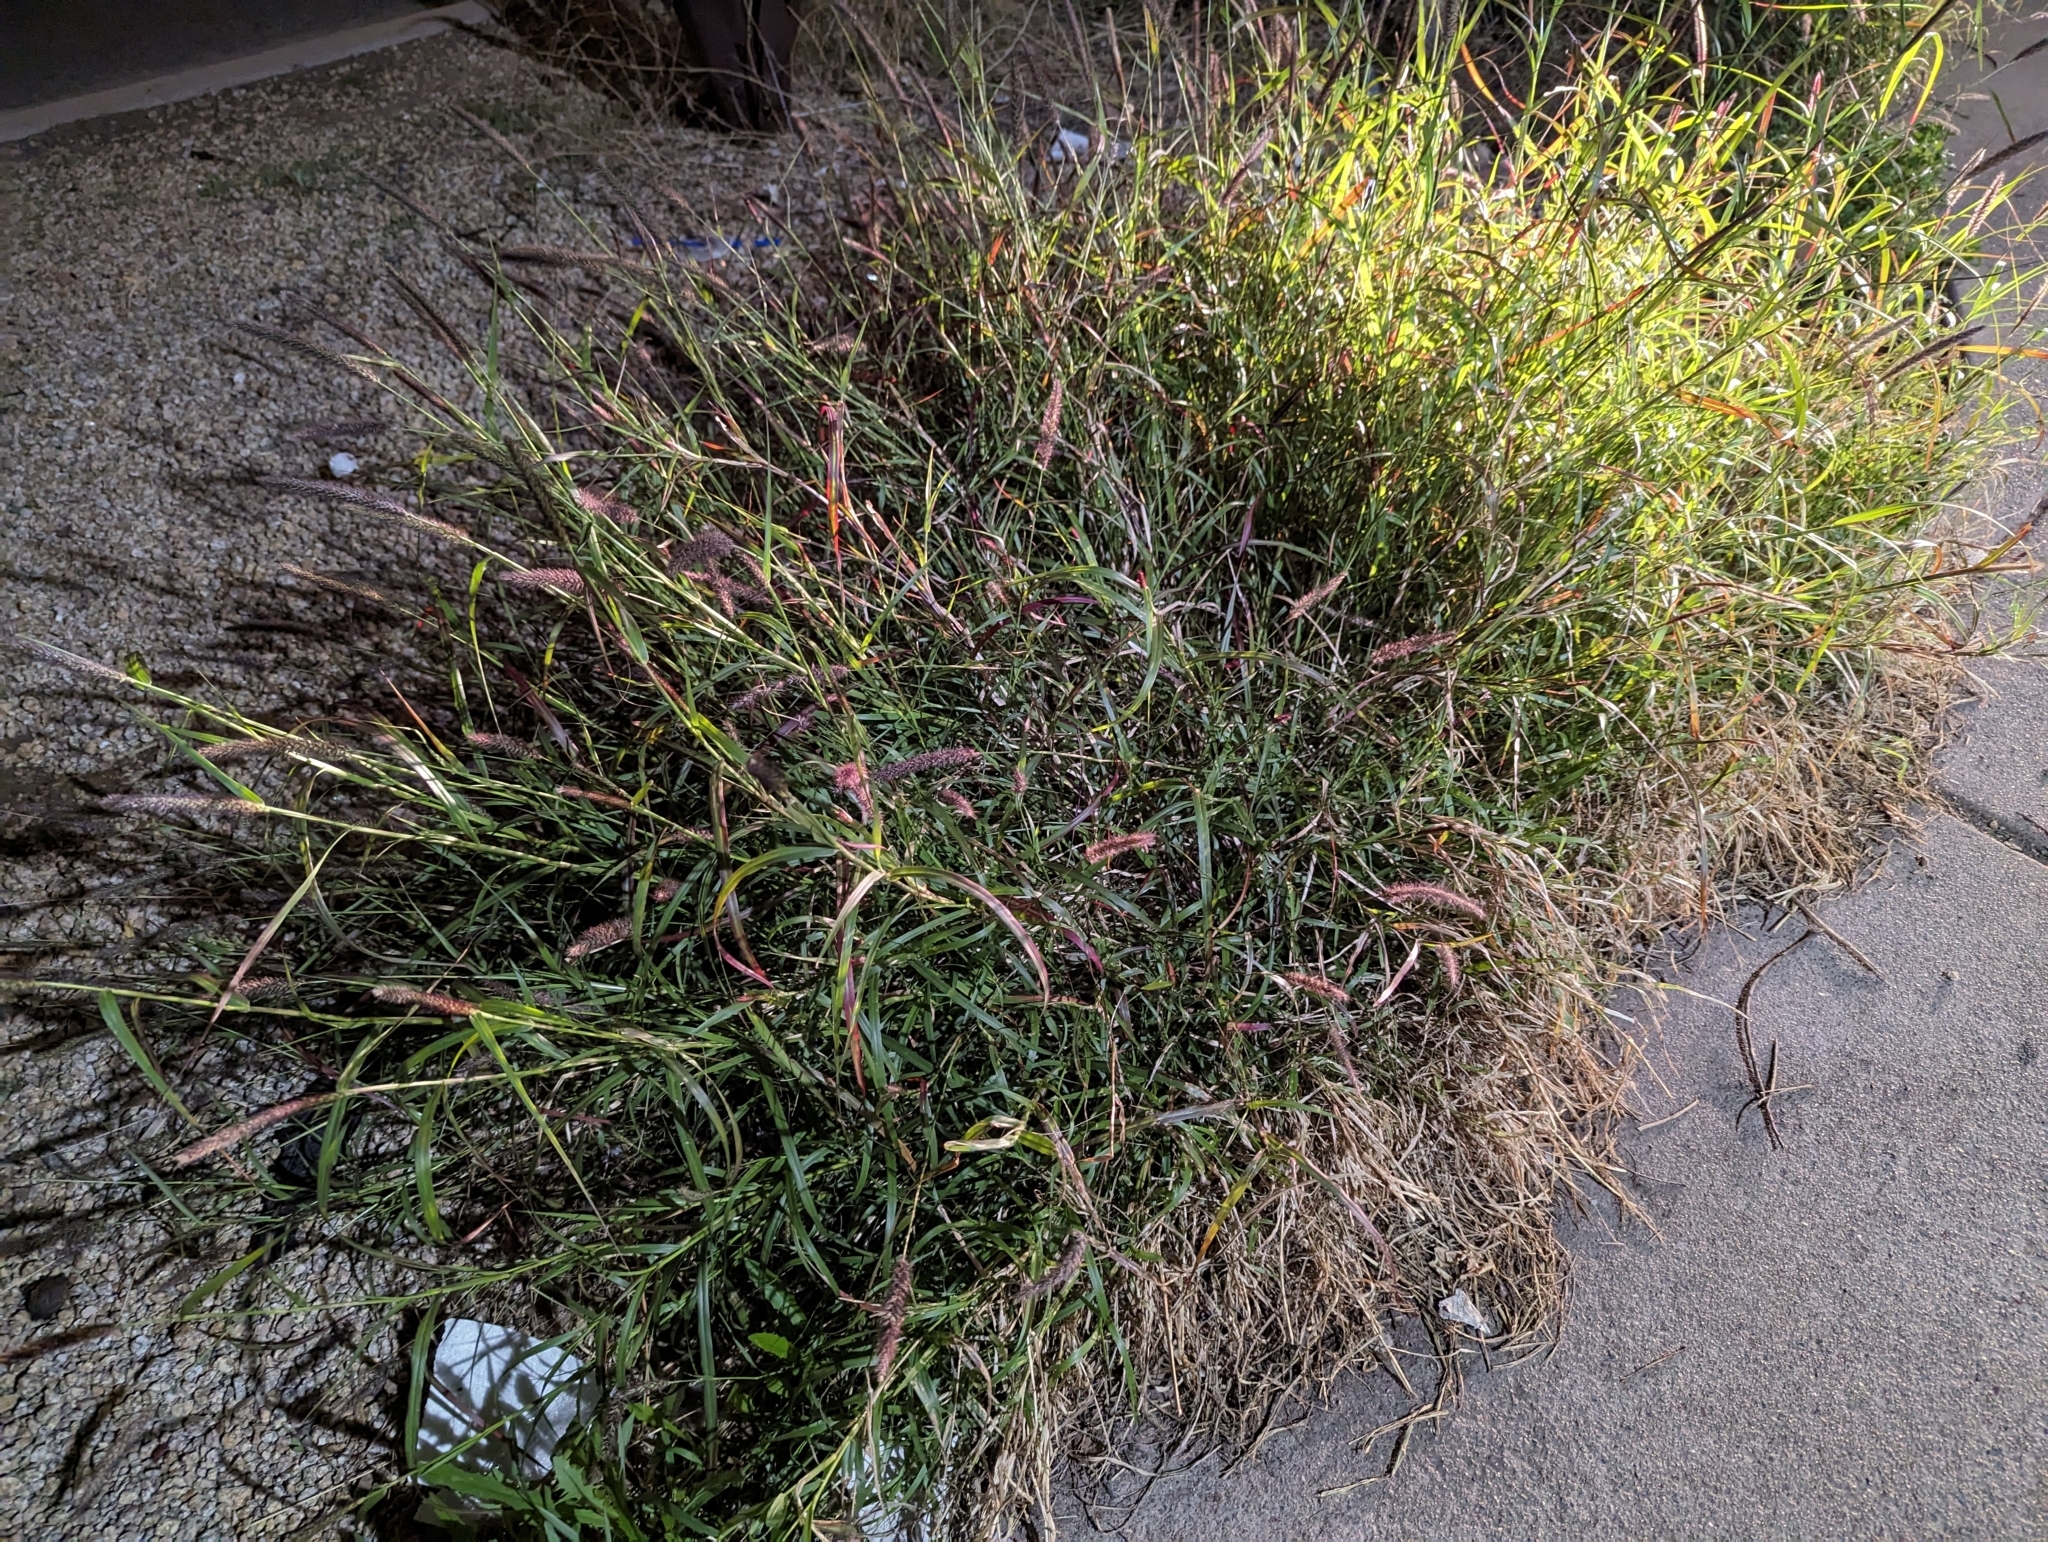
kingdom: Plantae
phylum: Tracheophyta
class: Liliopsida
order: Poales
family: Poaceae
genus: Cenchrus
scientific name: Cenchrus ciliaris
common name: Buffelgrass
